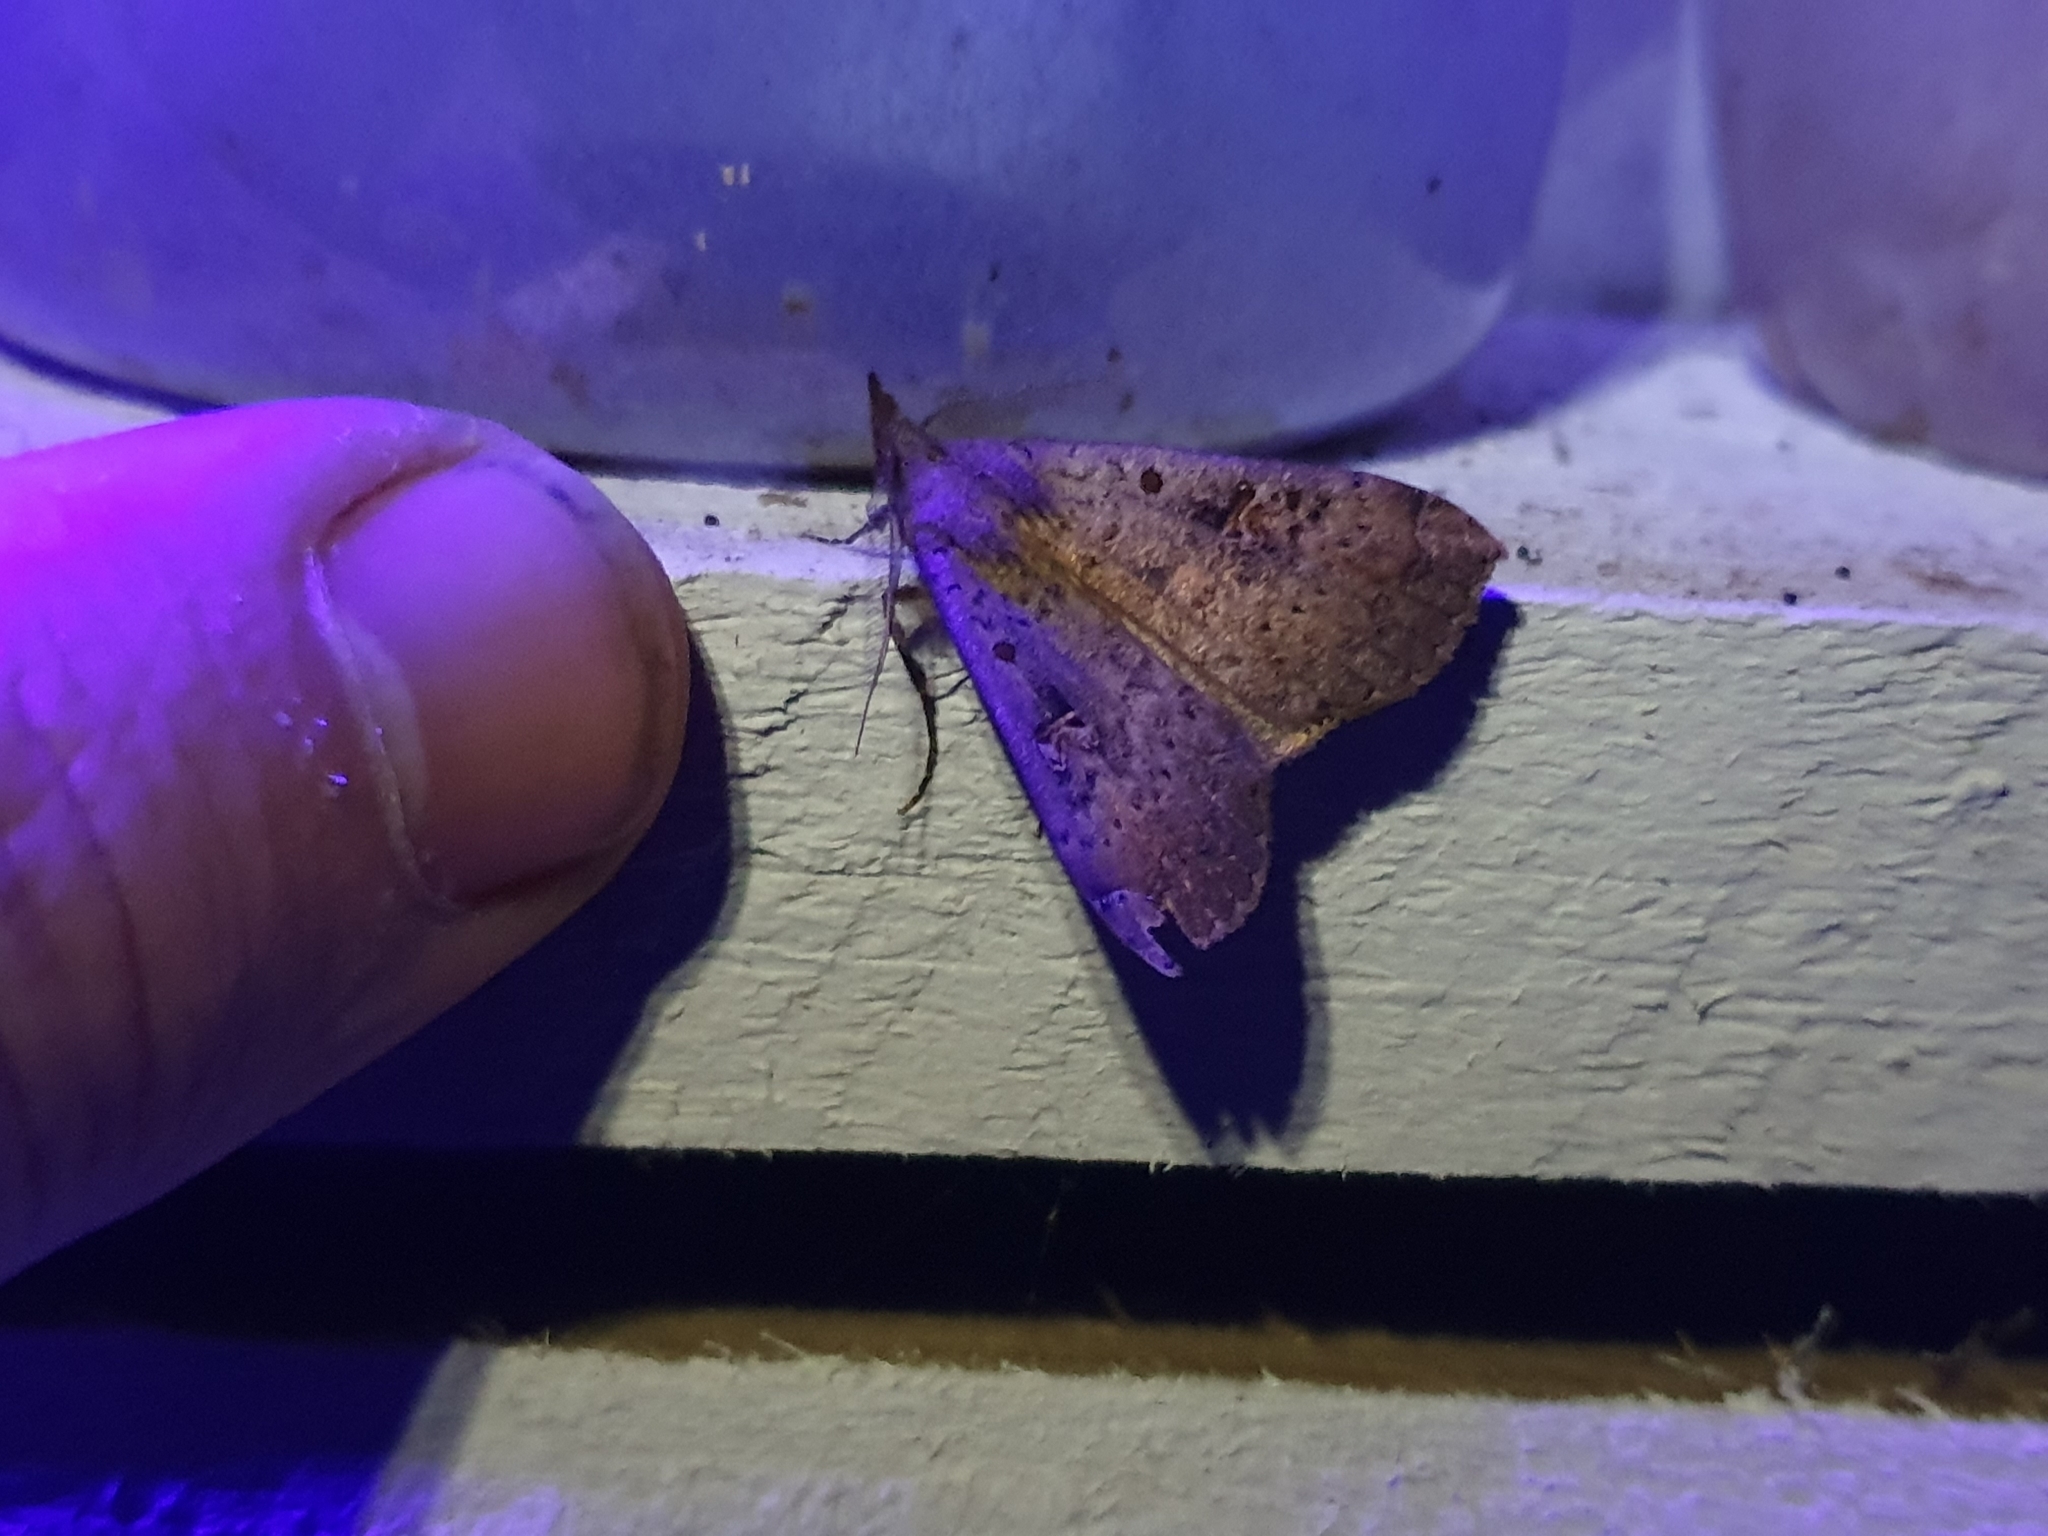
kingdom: Animalia
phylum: Arthropoda
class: Insecta
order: Lepidoptera
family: Erebidae
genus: Rhapsa
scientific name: Rhapsa scotosialis
